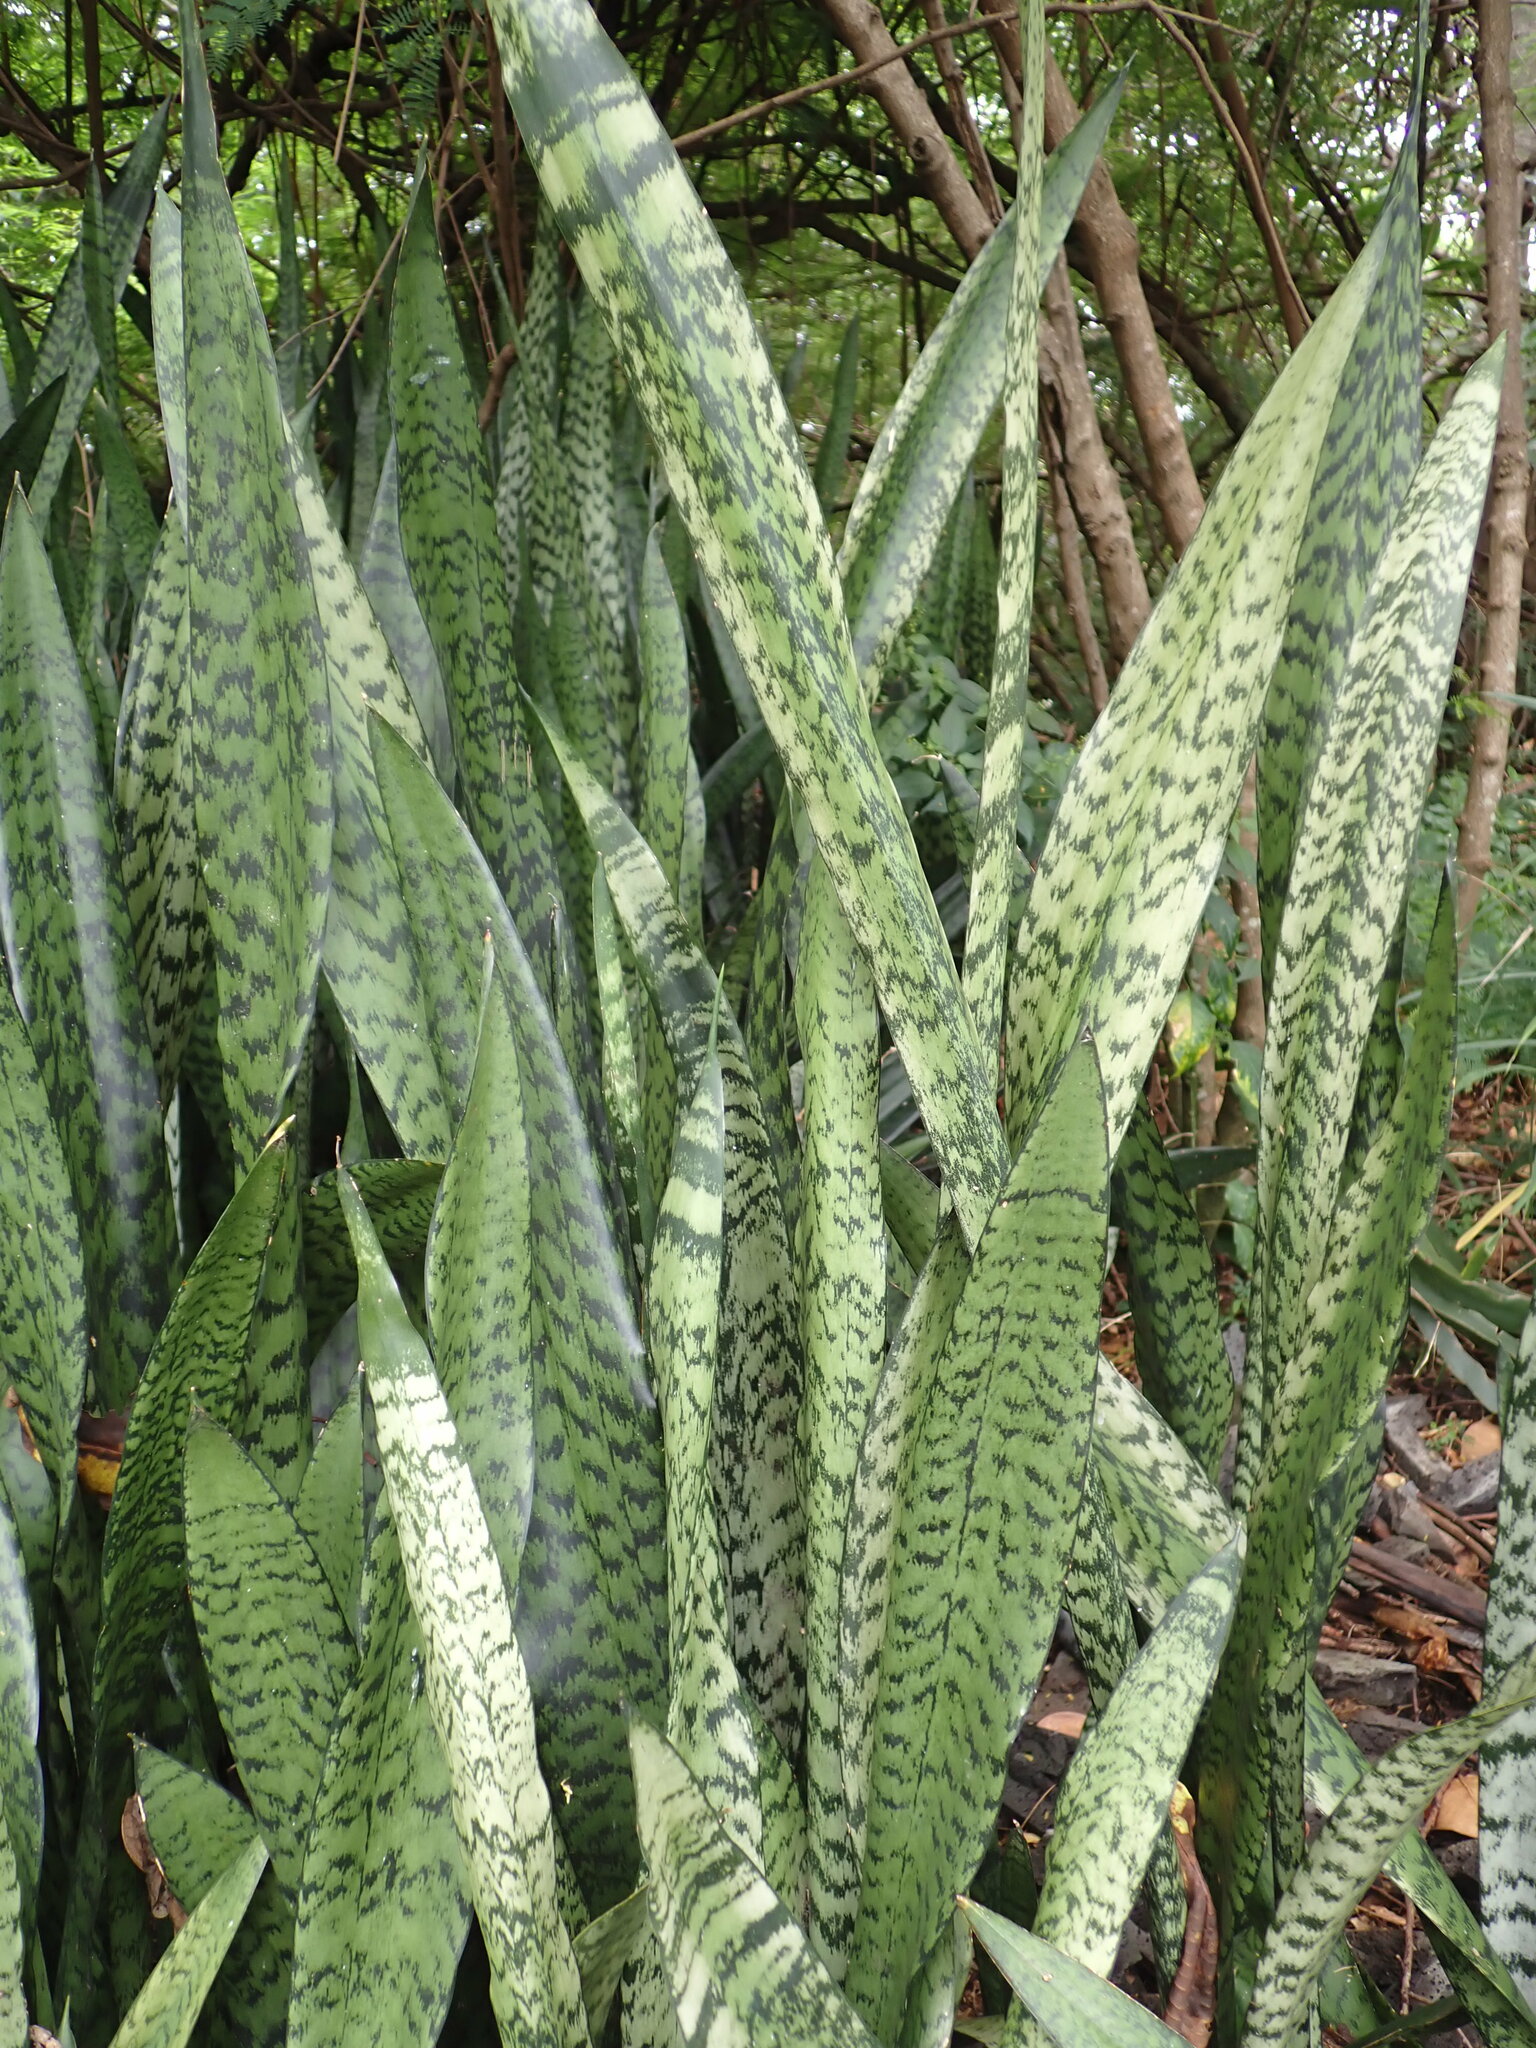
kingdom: Plantae
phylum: Tracheophyta
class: Liliopsida
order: Asparagales
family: Asparagaceae
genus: Dracaena
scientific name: Dracaena trifasciata
